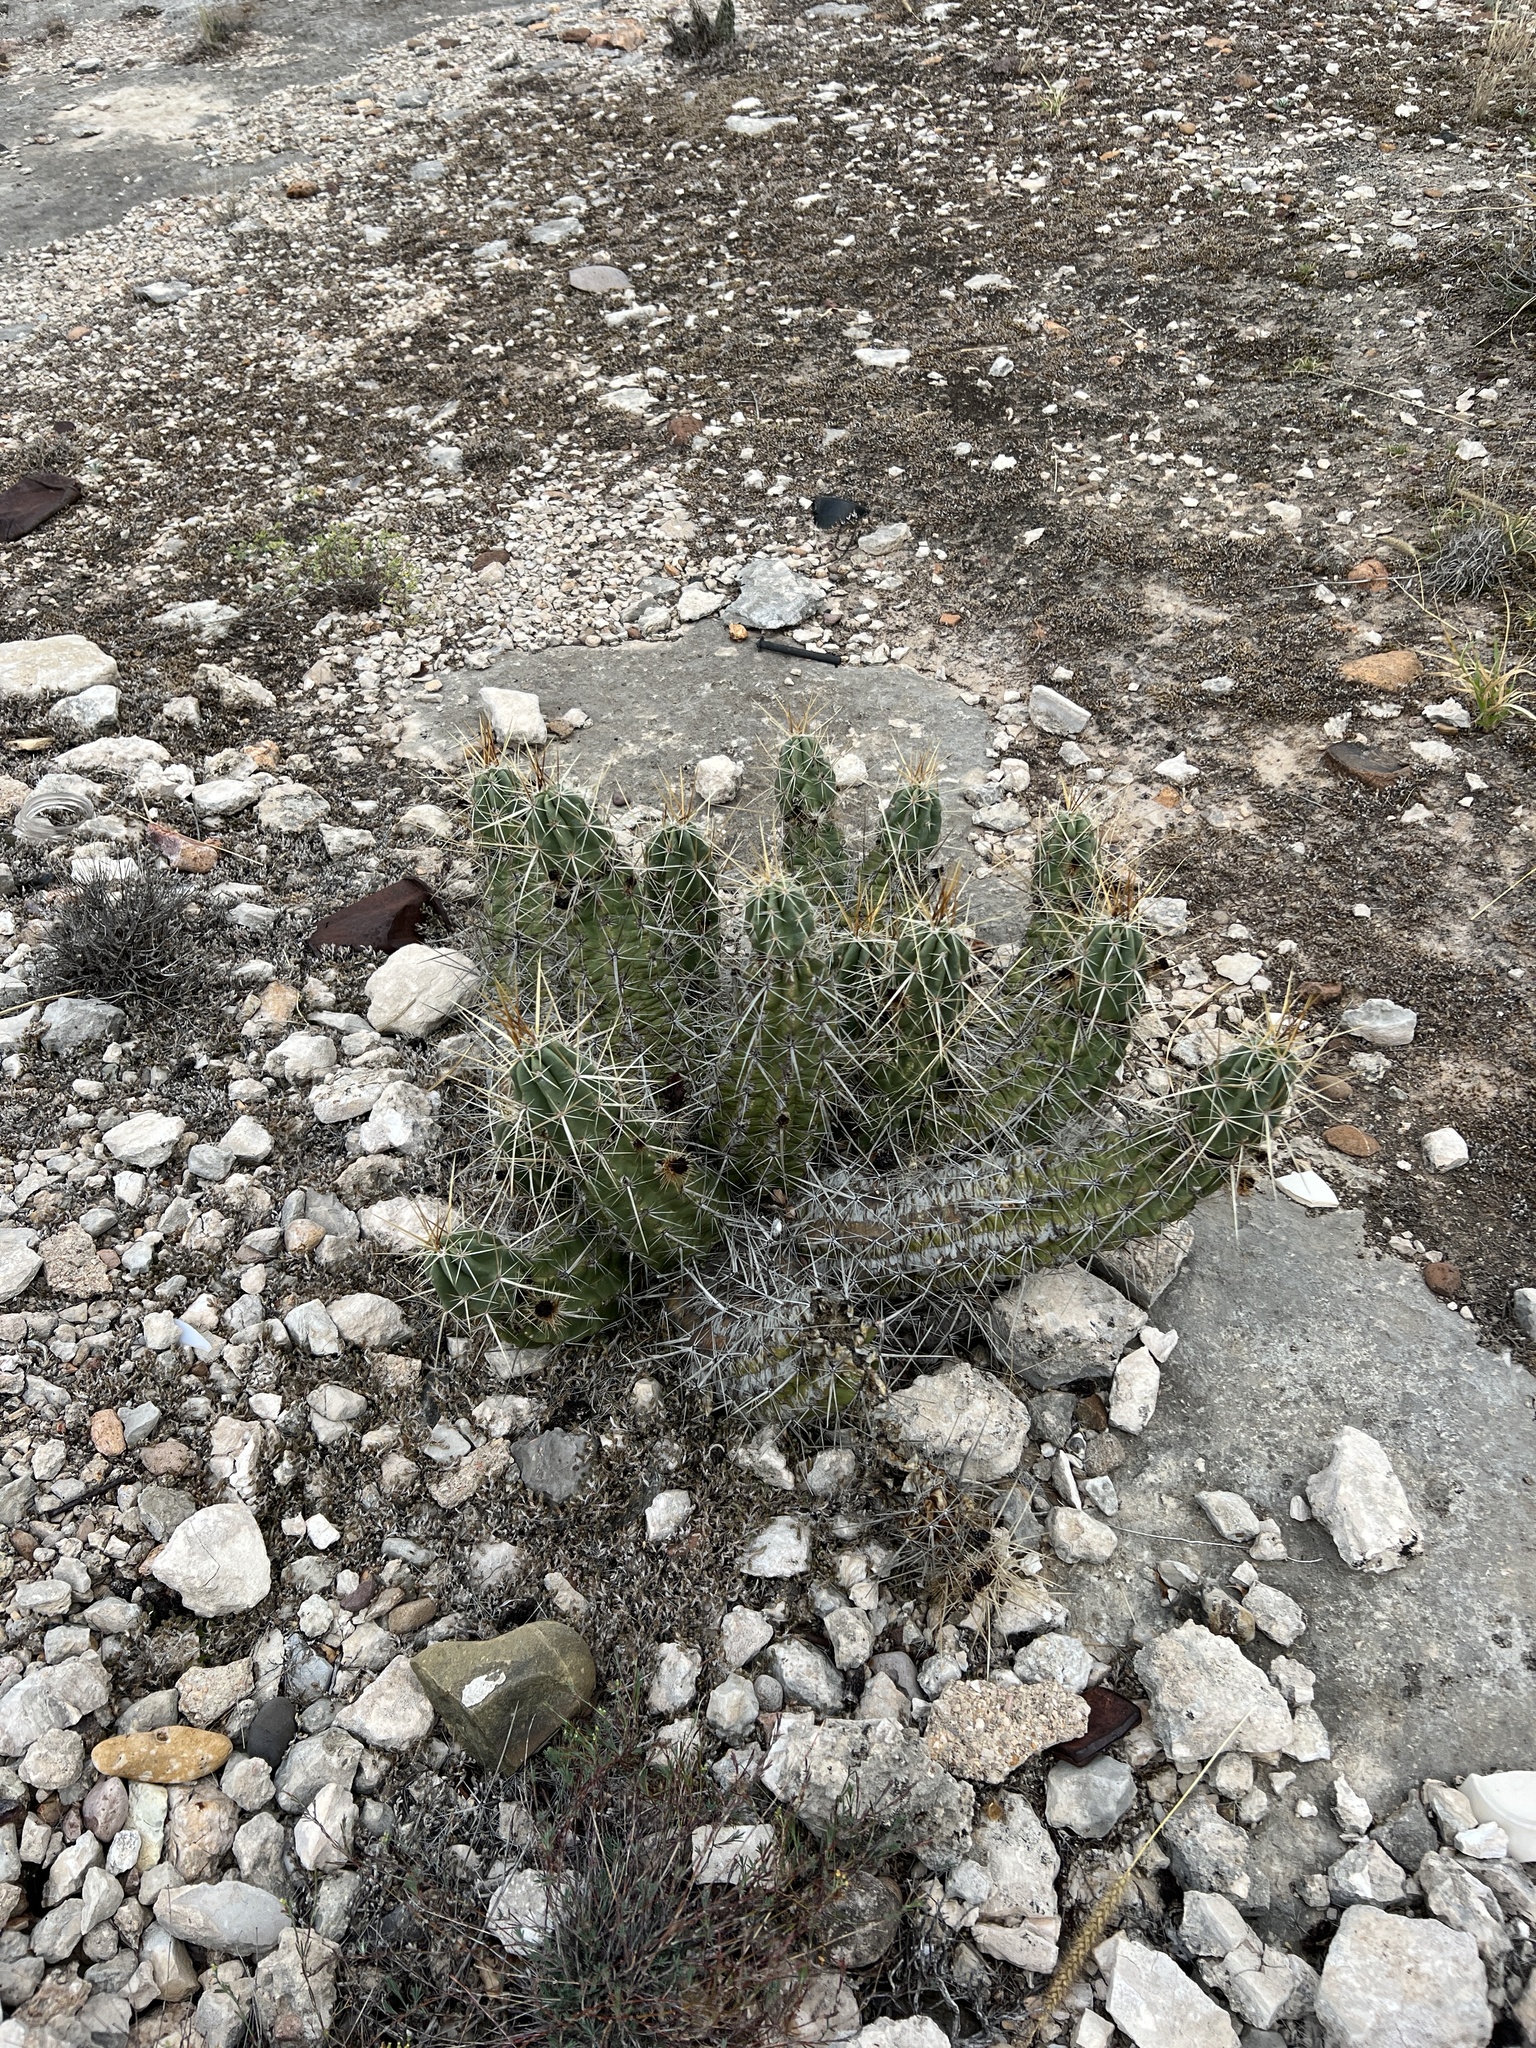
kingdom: Plantae
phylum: Tracheophyta
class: Magnoliopsida
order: Caryophyllales
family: Cactaceae
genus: Echinocereus
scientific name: Echinocereus enneacanthus
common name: Pitaya
